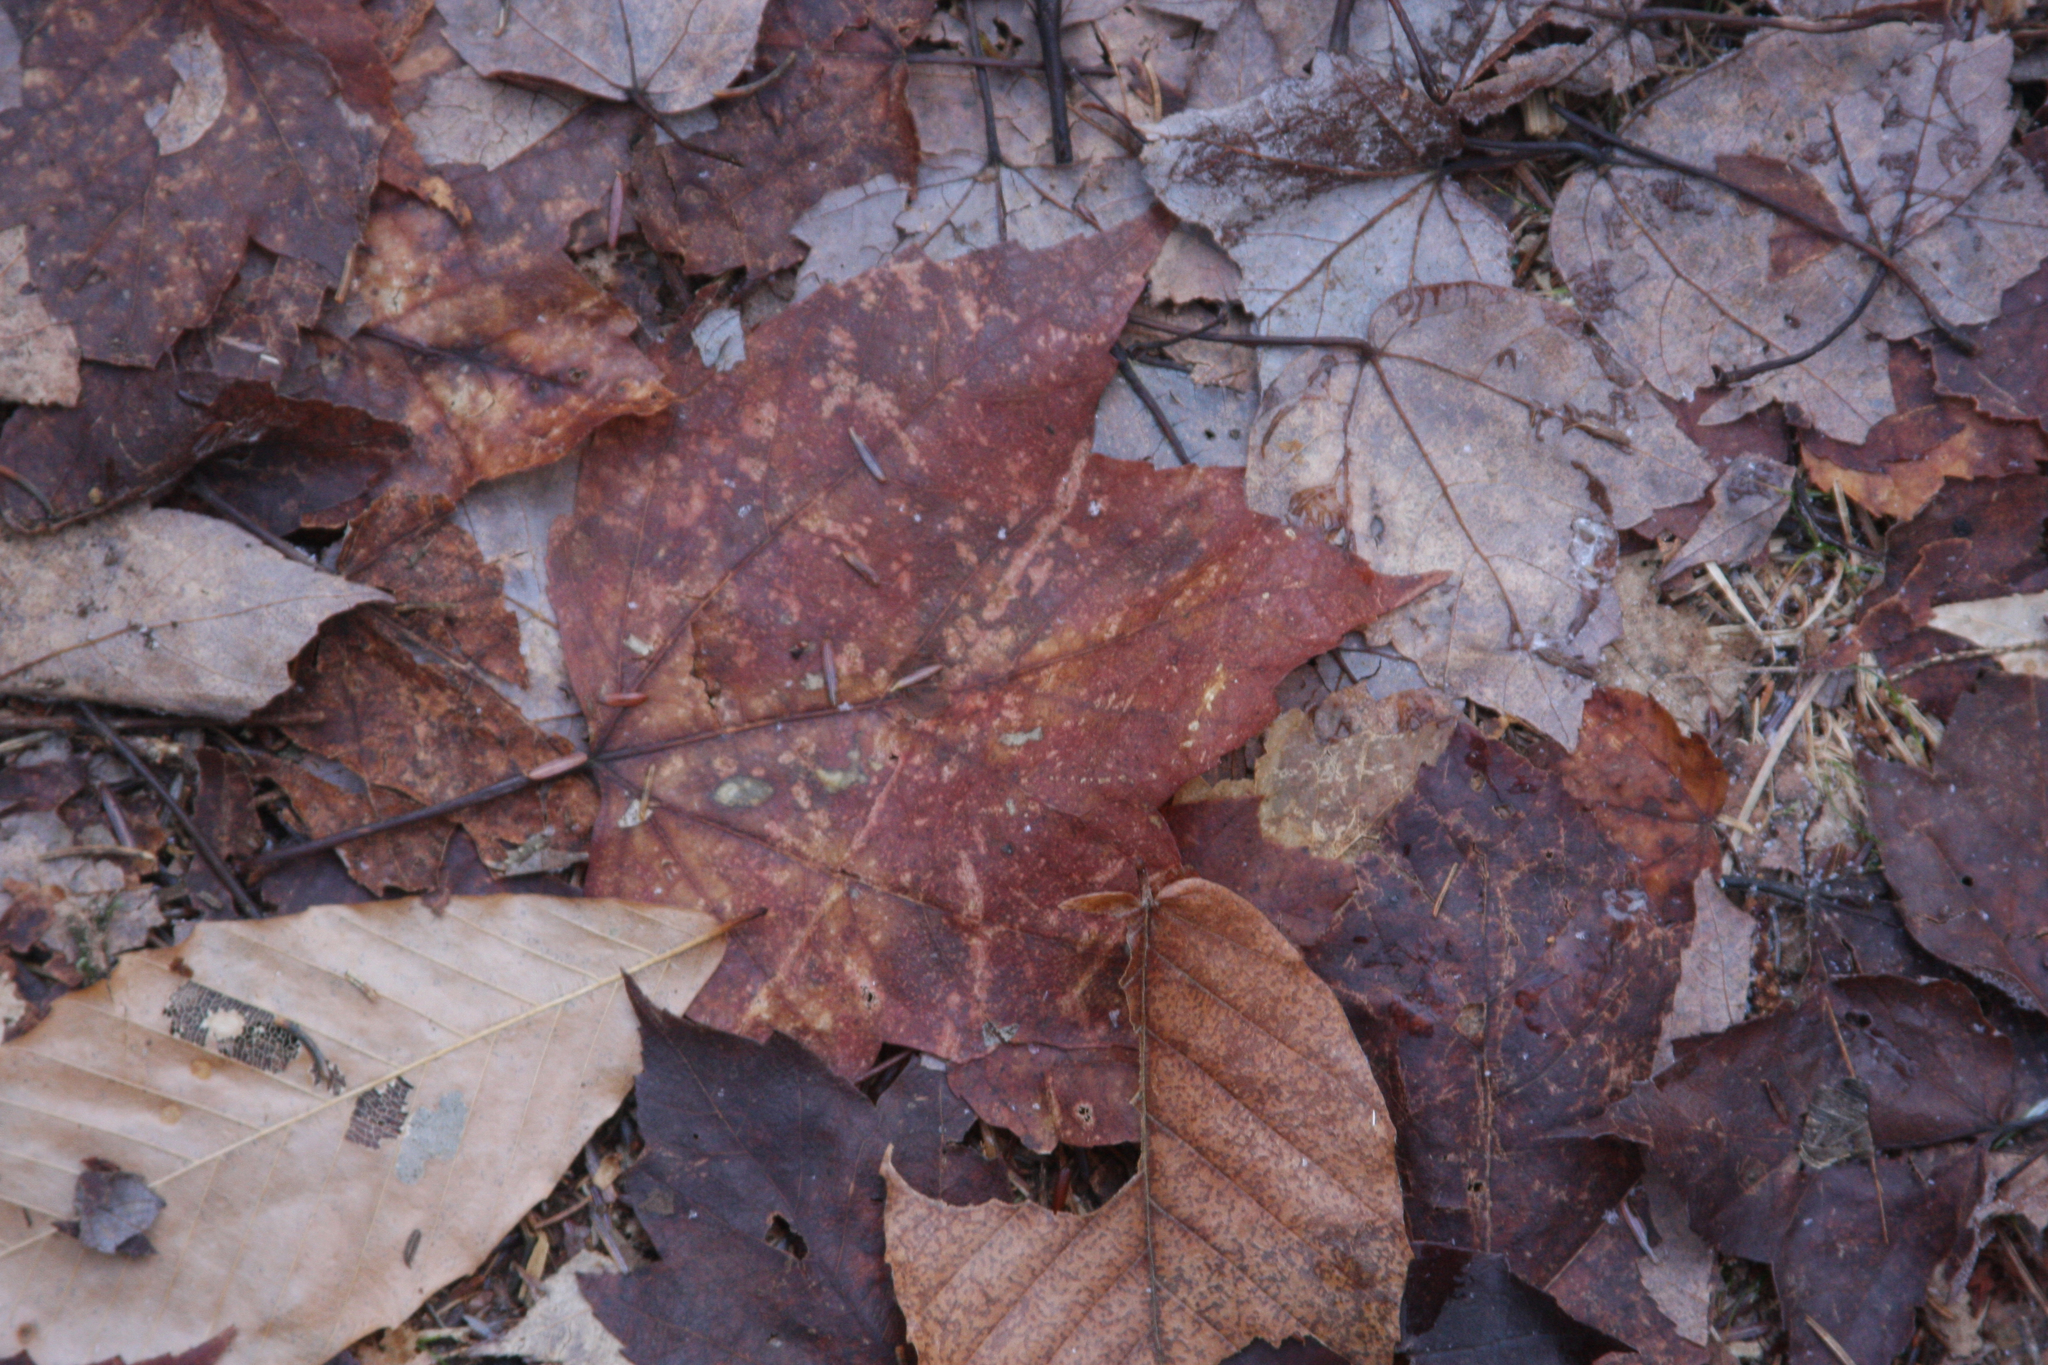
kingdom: Plantae
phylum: Tracheophyta
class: Magnoliopsida
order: Sapindales
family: Sapindaceae
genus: Acer
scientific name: Acer rubrum
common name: Red maple
